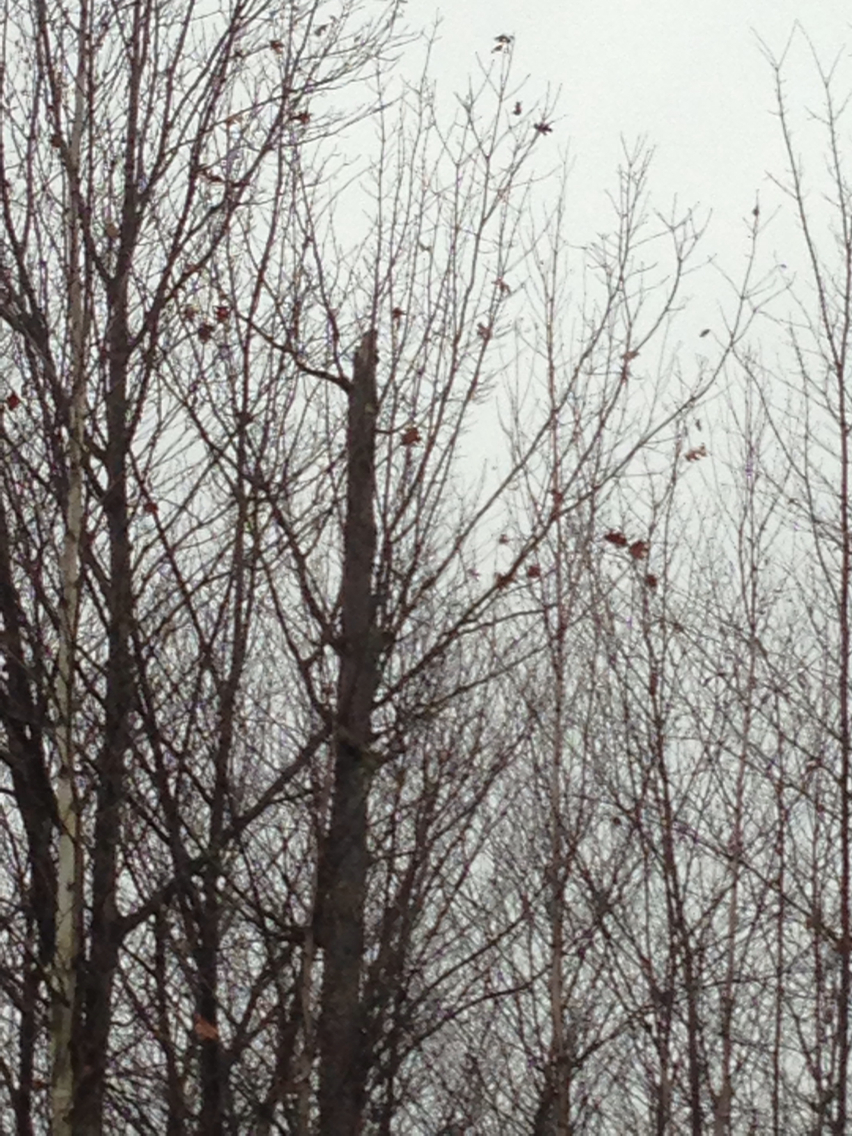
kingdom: Plantae
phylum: Tracheophyta
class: Magnoliopsida
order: Fagales
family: Fagaceae
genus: Quercus
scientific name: Quercus rubra
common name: Red oak
